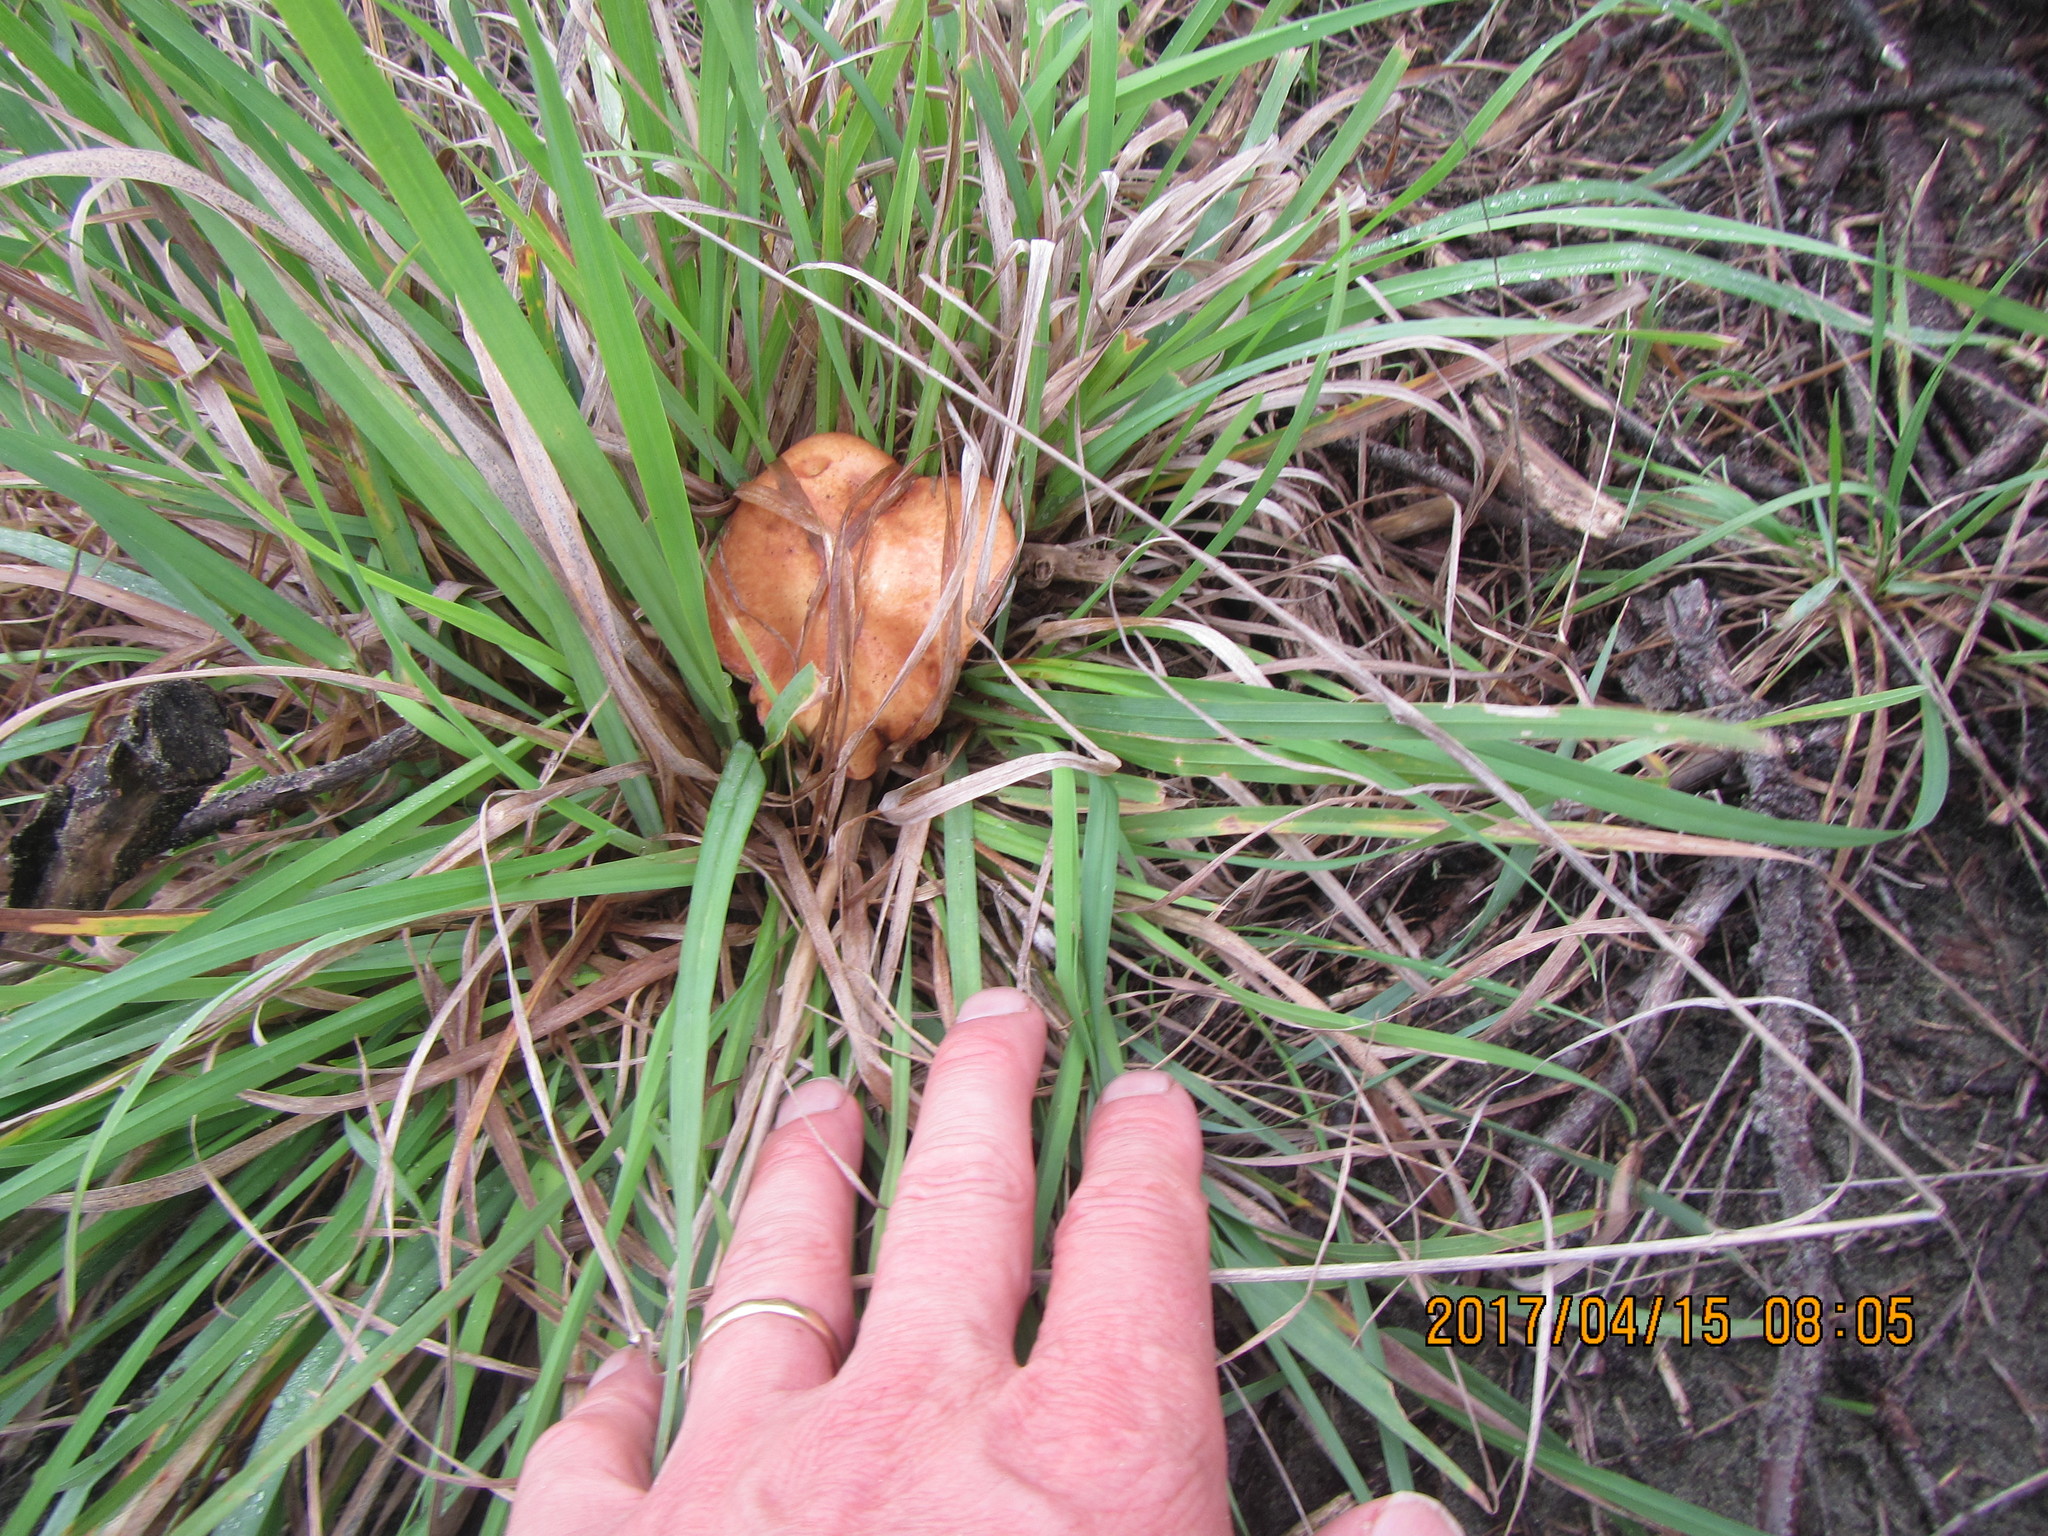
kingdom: Fungi
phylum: Basidiomycota
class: Agaricomycetes
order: Boletales
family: Suillaceae
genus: Suillus
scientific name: Suillus granulatus
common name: Weeping bolete
